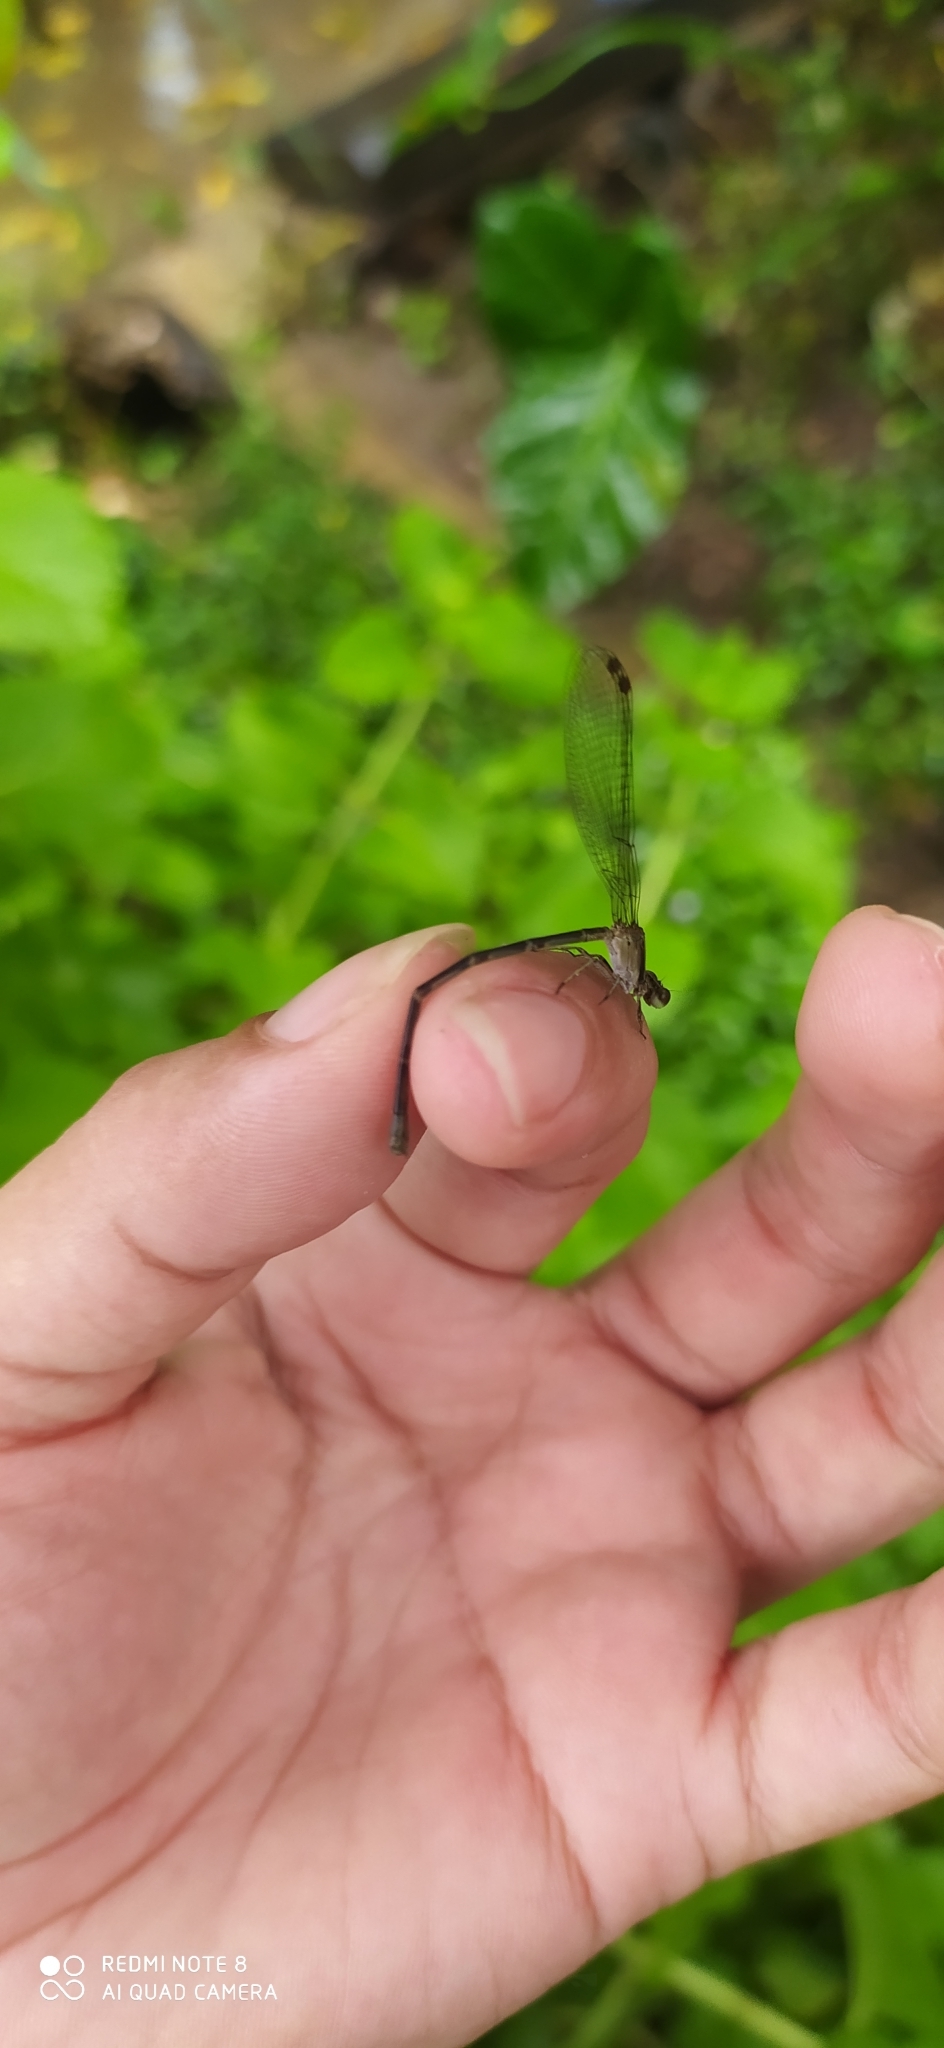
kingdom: Animalia
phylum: Arthropoda
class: Insecta
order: Odonata
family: Coenagrionidae
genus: Argia
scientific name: Argia pulla
